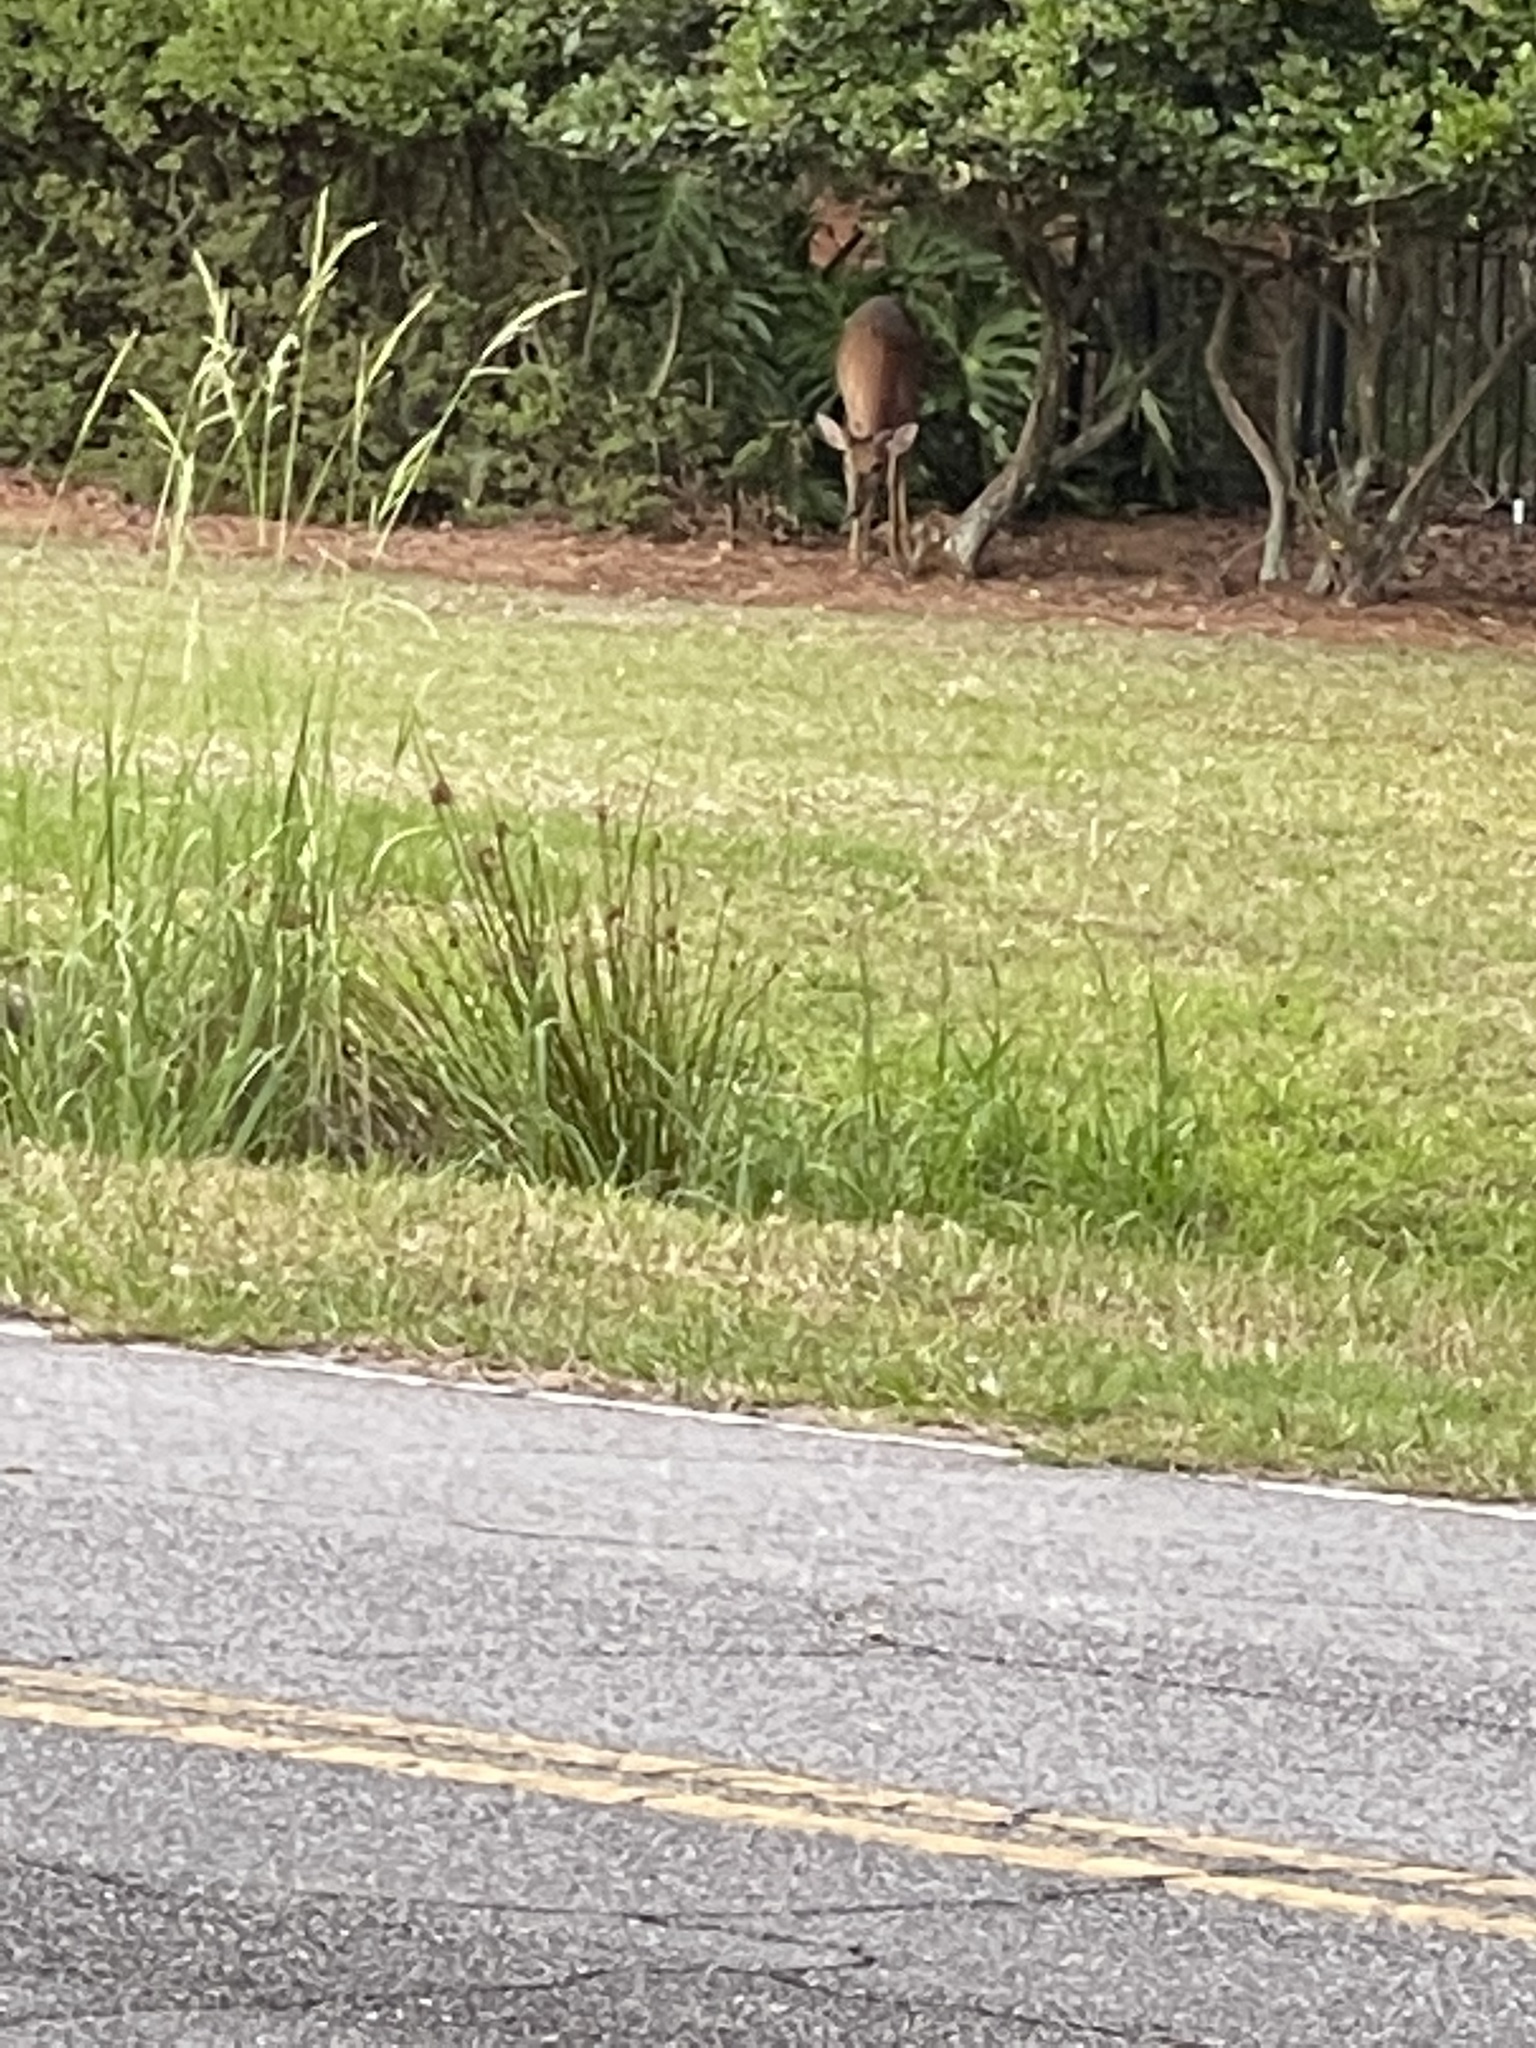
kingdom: Animalia
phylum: Chordata
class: Mammalia
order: Artiodactyla
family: Cervidae
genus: Odocoileus
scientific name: Odocoileus virginianus
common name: White-tailed deer
